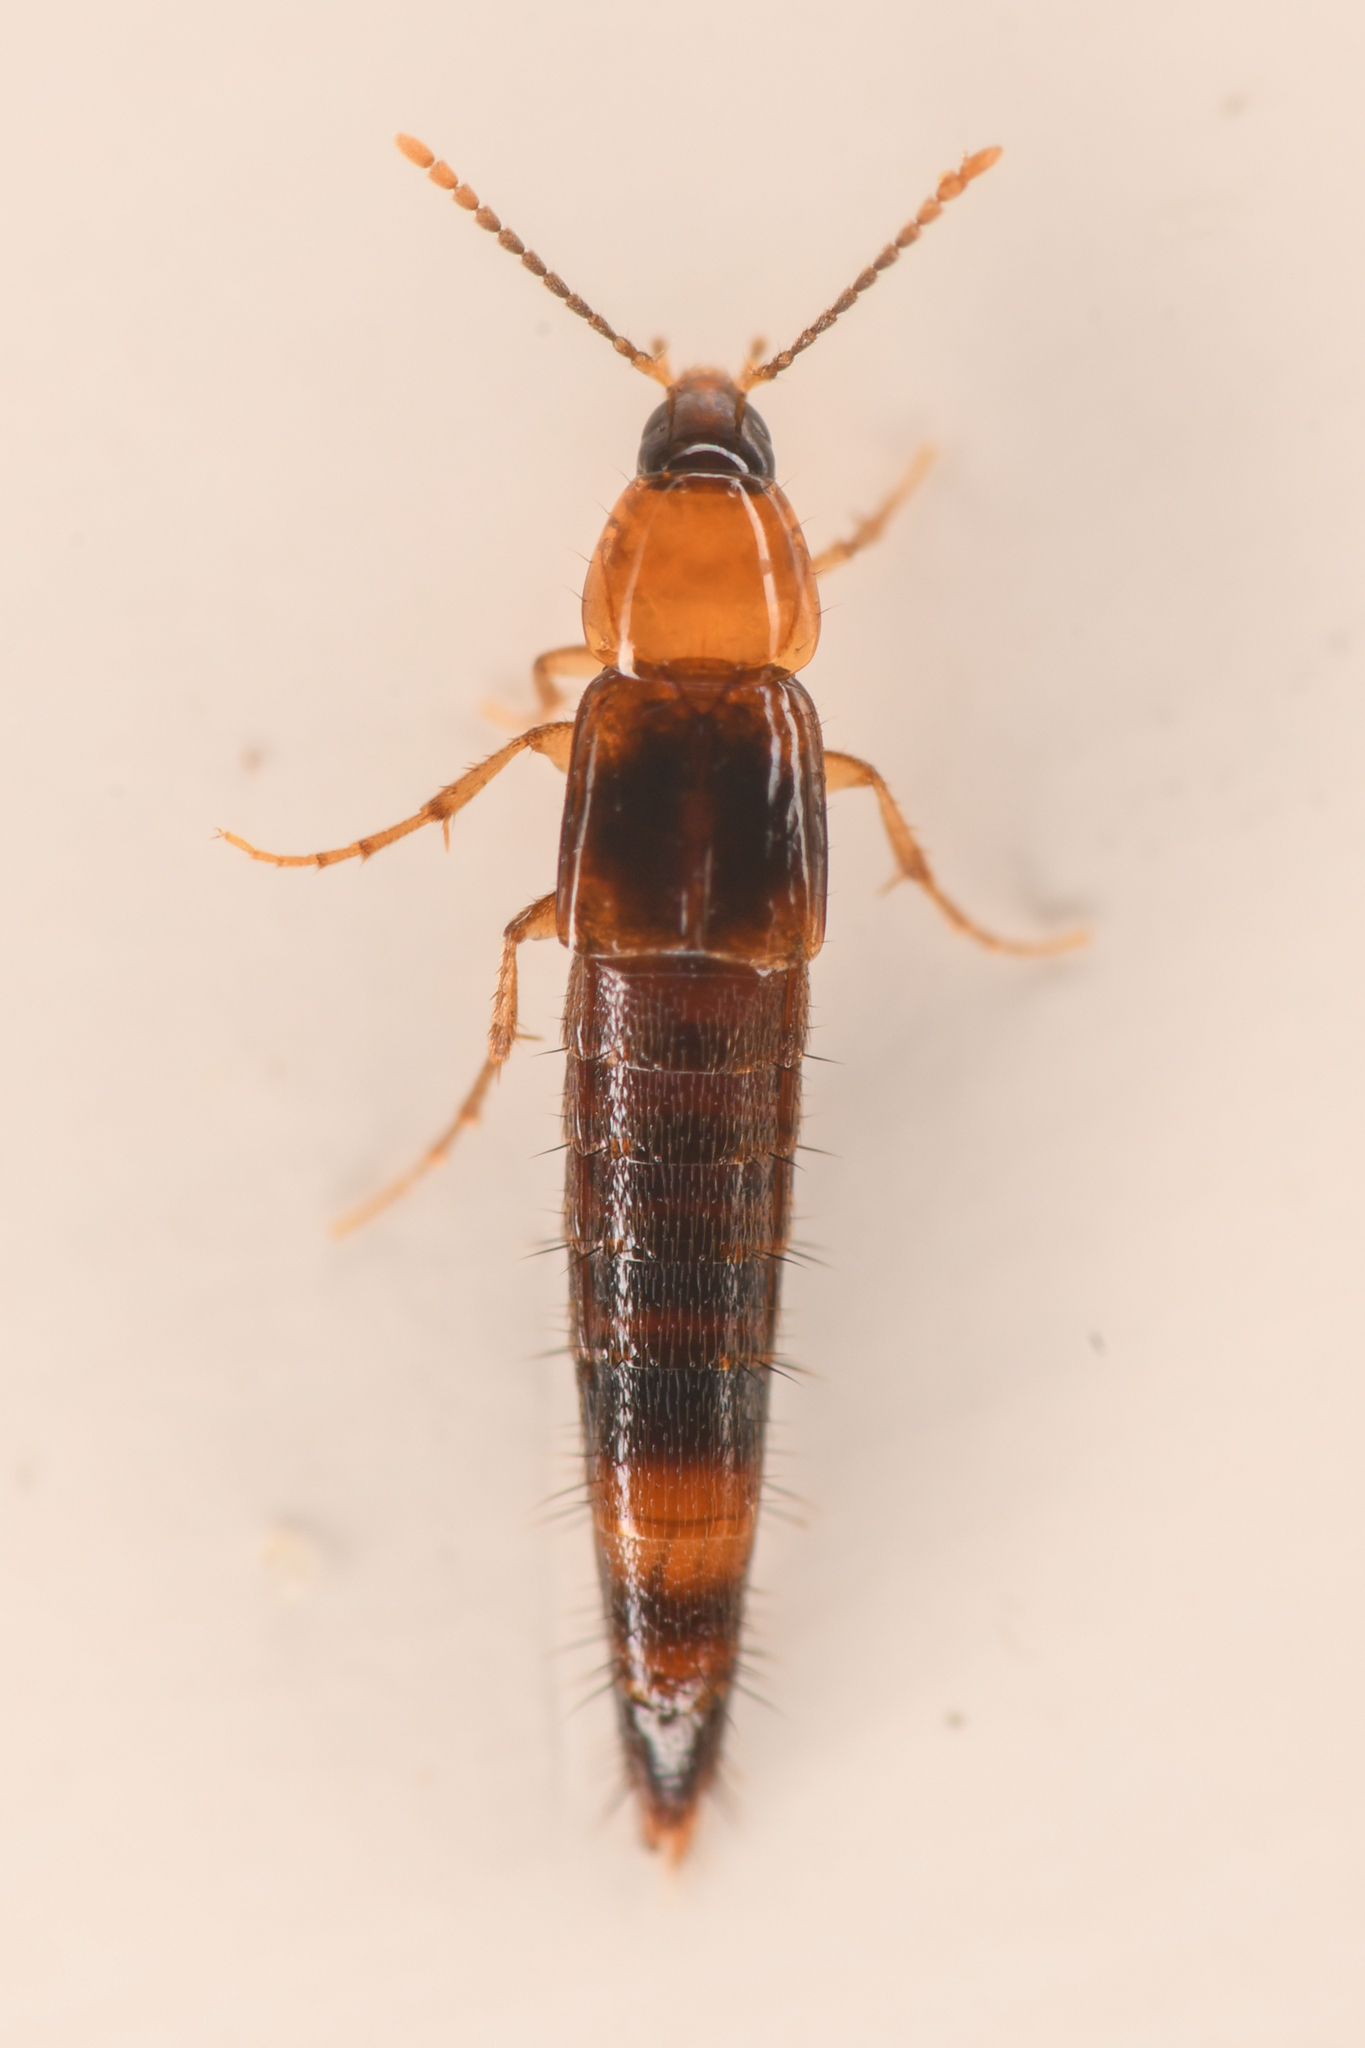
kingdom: Animalia
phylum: Arthropoda
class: Insecta
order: Coleoptera
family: Staphylinidae
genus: Ischnosoma
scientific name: Ischnosoma pictum
